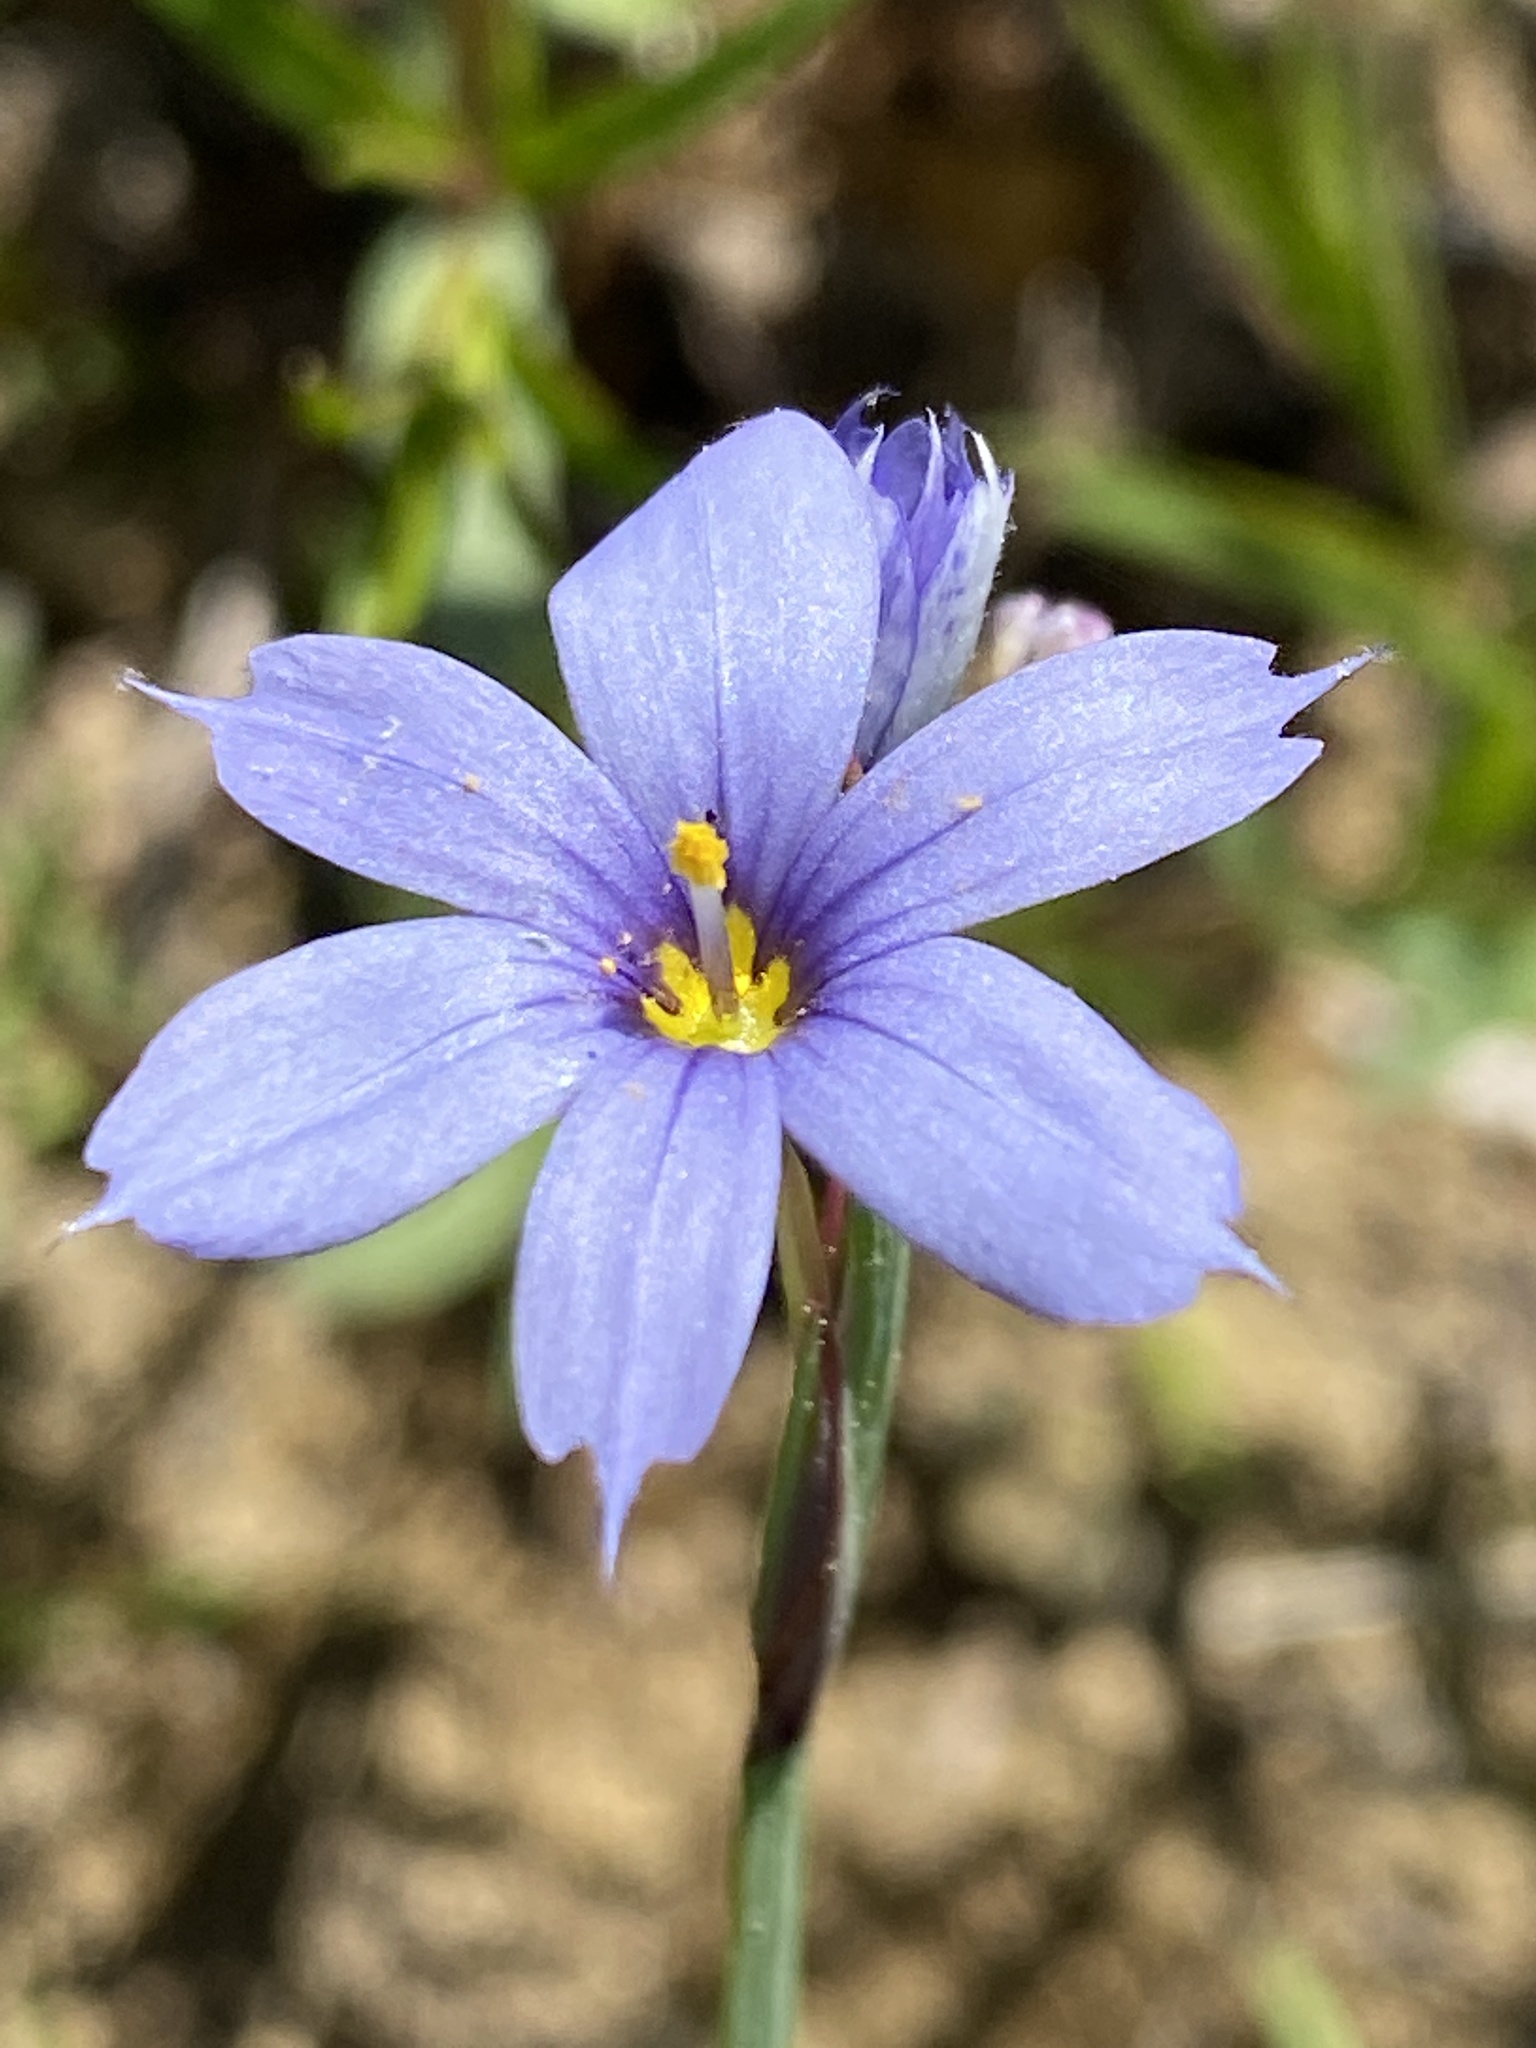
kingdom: Plantae
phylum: Tracheophyta
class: Liliopsida
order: Asparagales
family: Iridaceae
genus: Sisyrinchium
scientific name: Sisyrinchium angustifolium
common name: Narrow-leaf blue-eyed-grass
